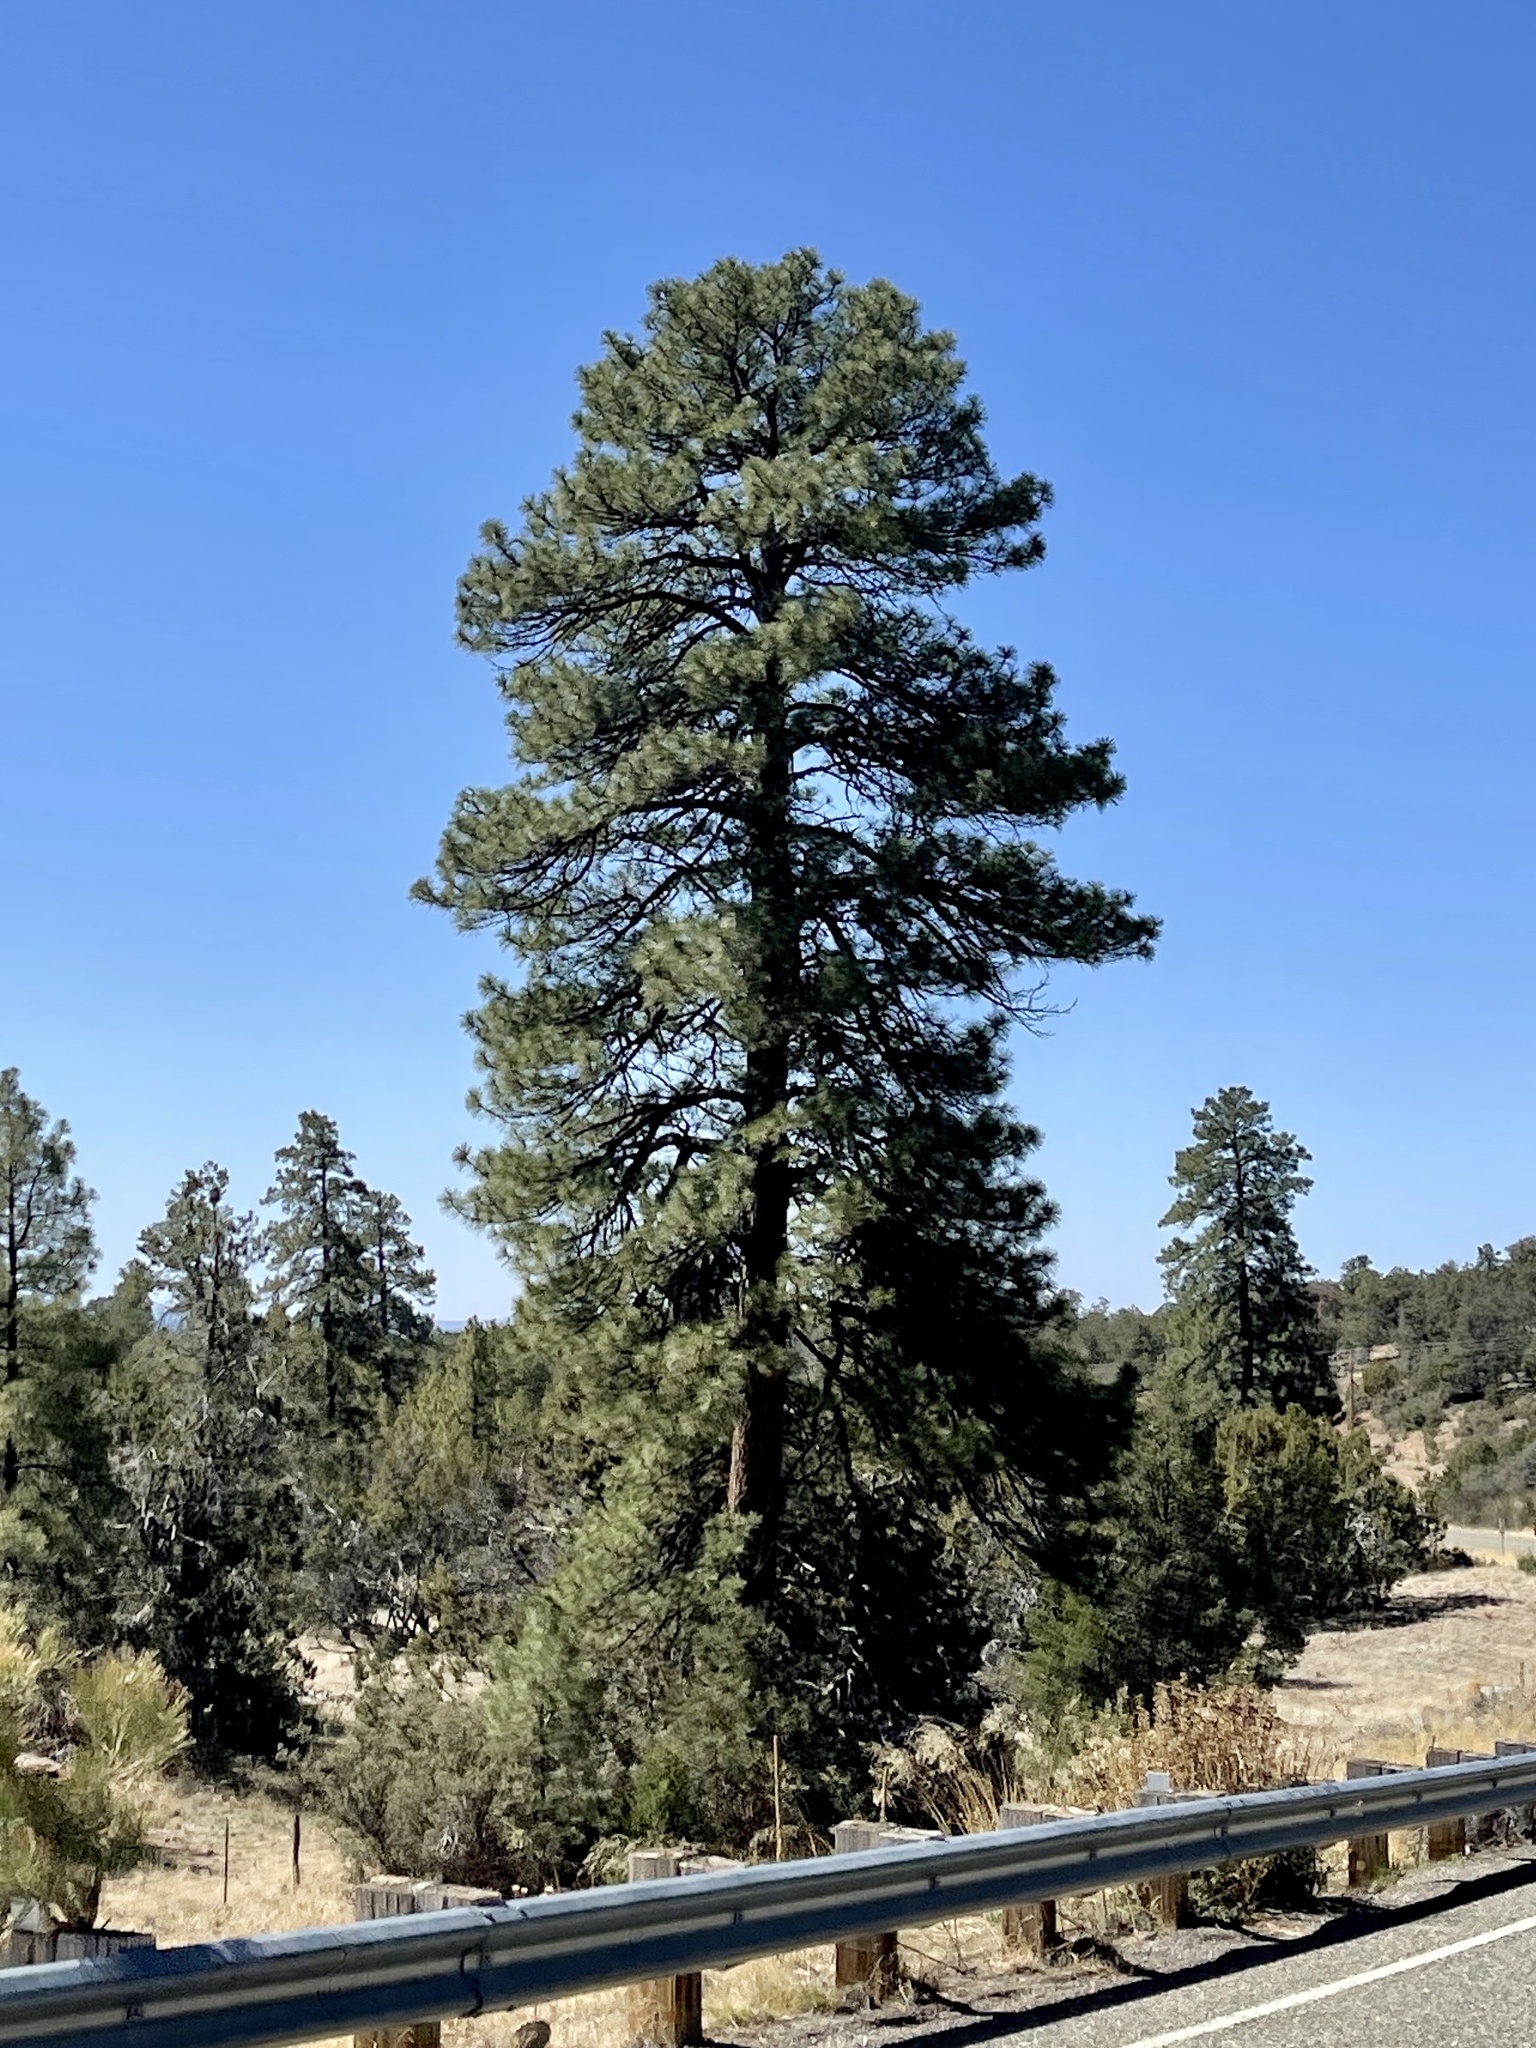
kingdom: Plantae
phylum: Tracheophyta
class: Pinopsida
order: Pinales
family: Pinaceae
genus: Pinus
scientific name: Pinus ponderosa
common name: Western yellow-pine
